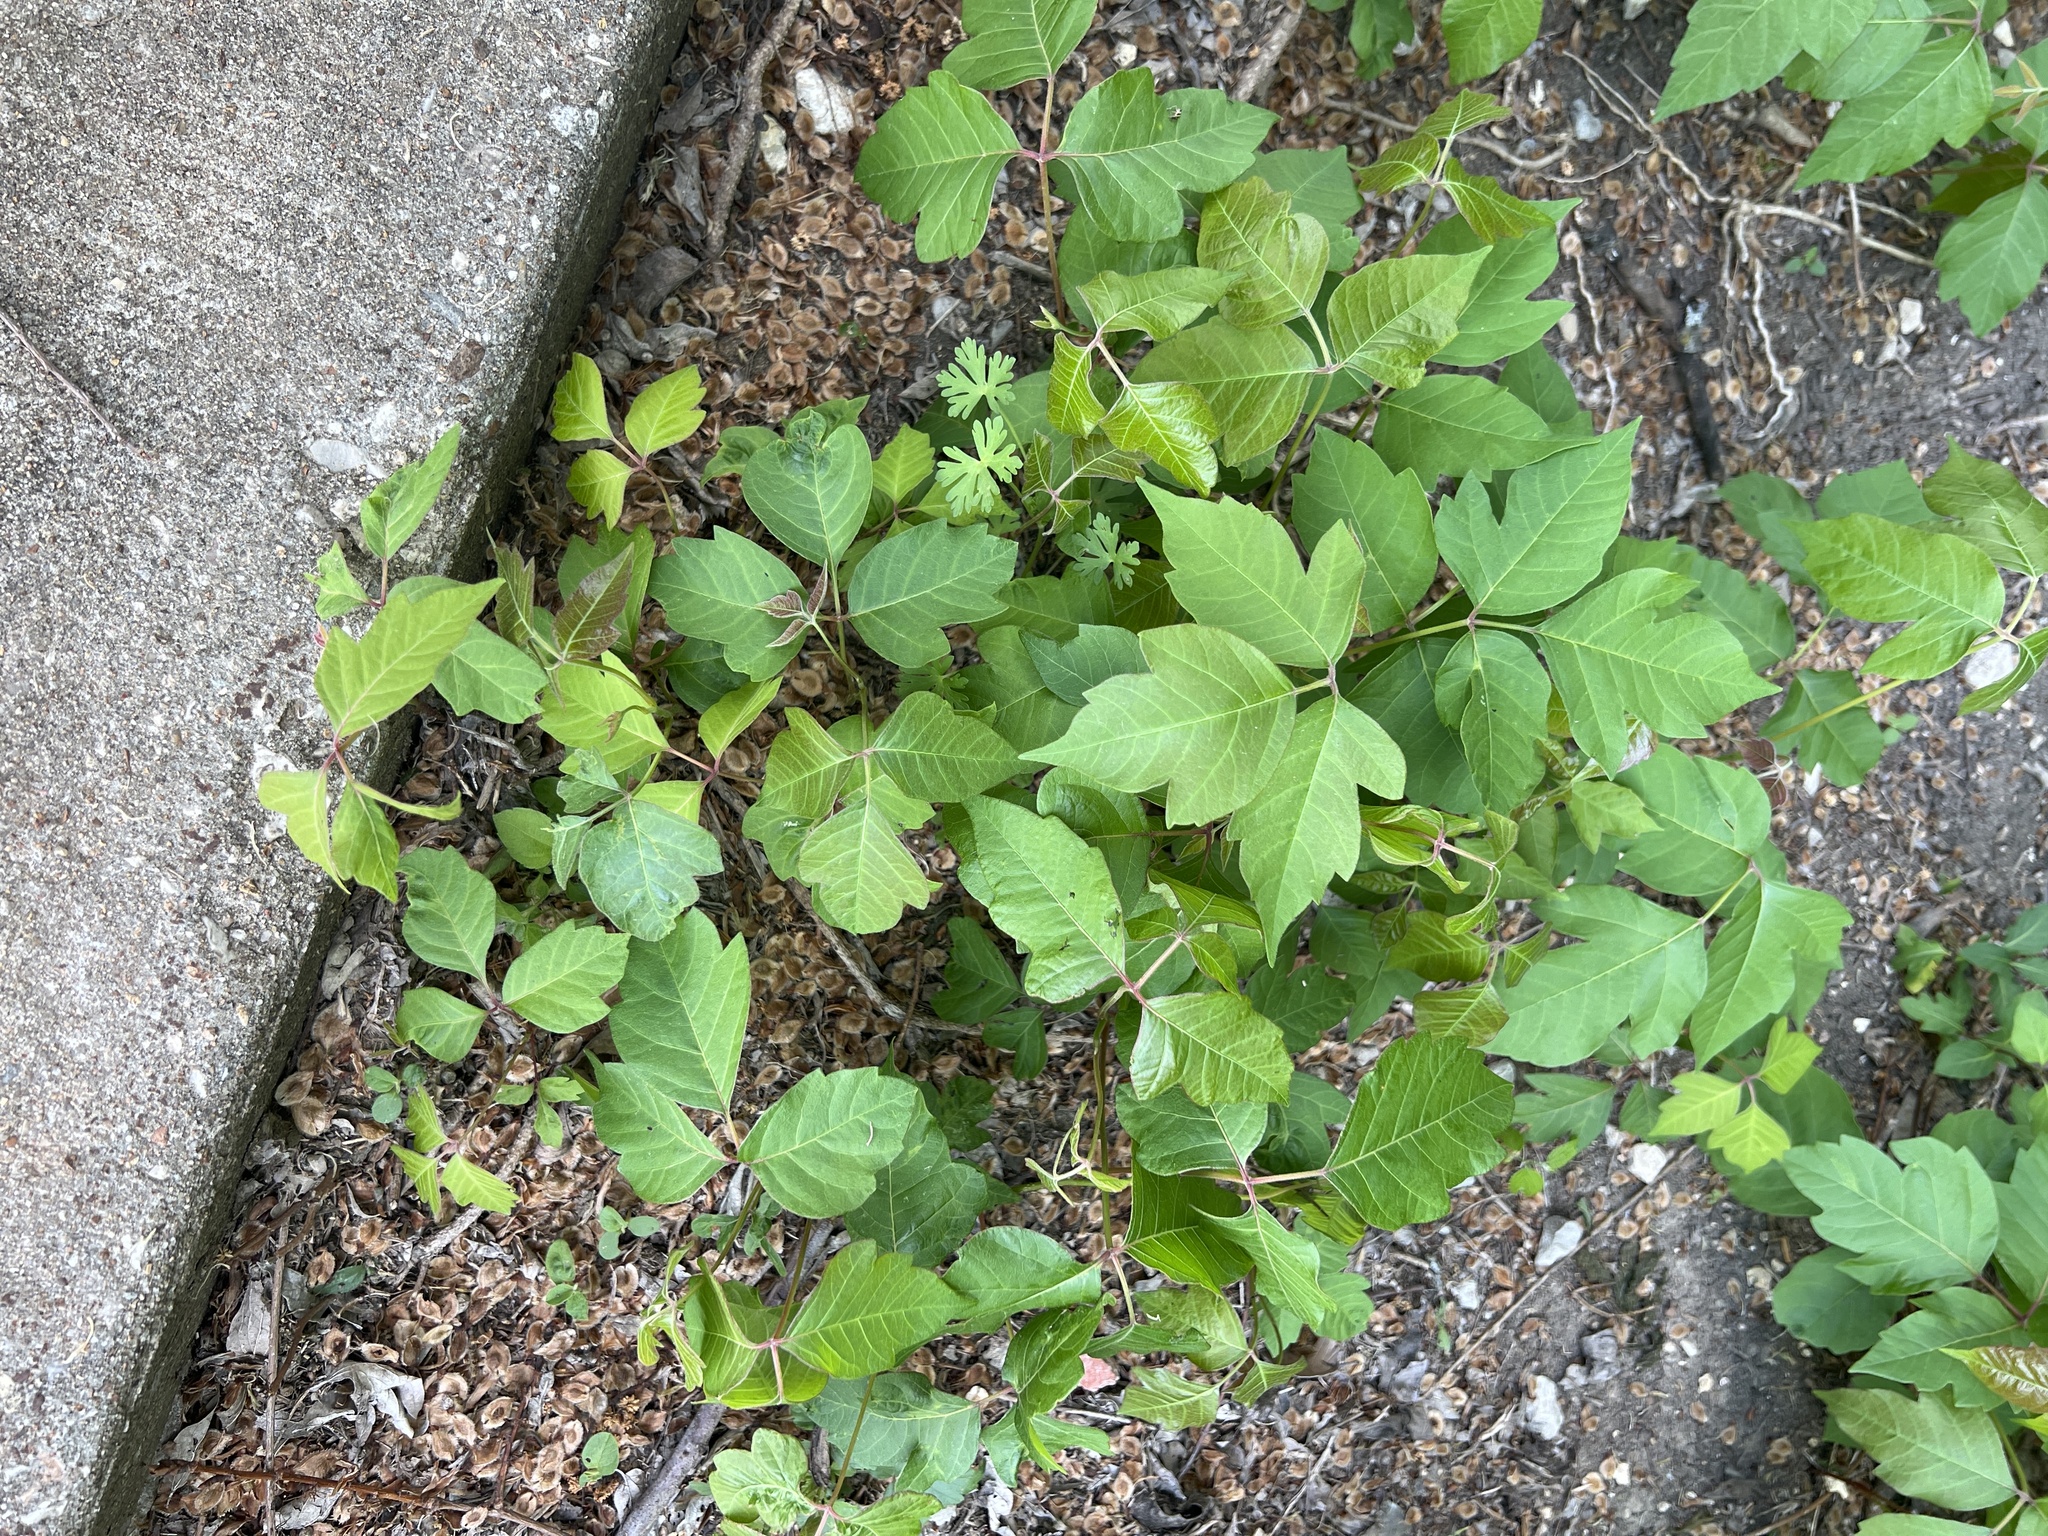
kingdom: Plantae
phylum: Tracheophyta
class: Magnoliopsida
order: Sapindales
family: Anacardiaceae
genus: Toxicodendron
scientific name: Toxicodendron radicans
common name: Poison ivy
